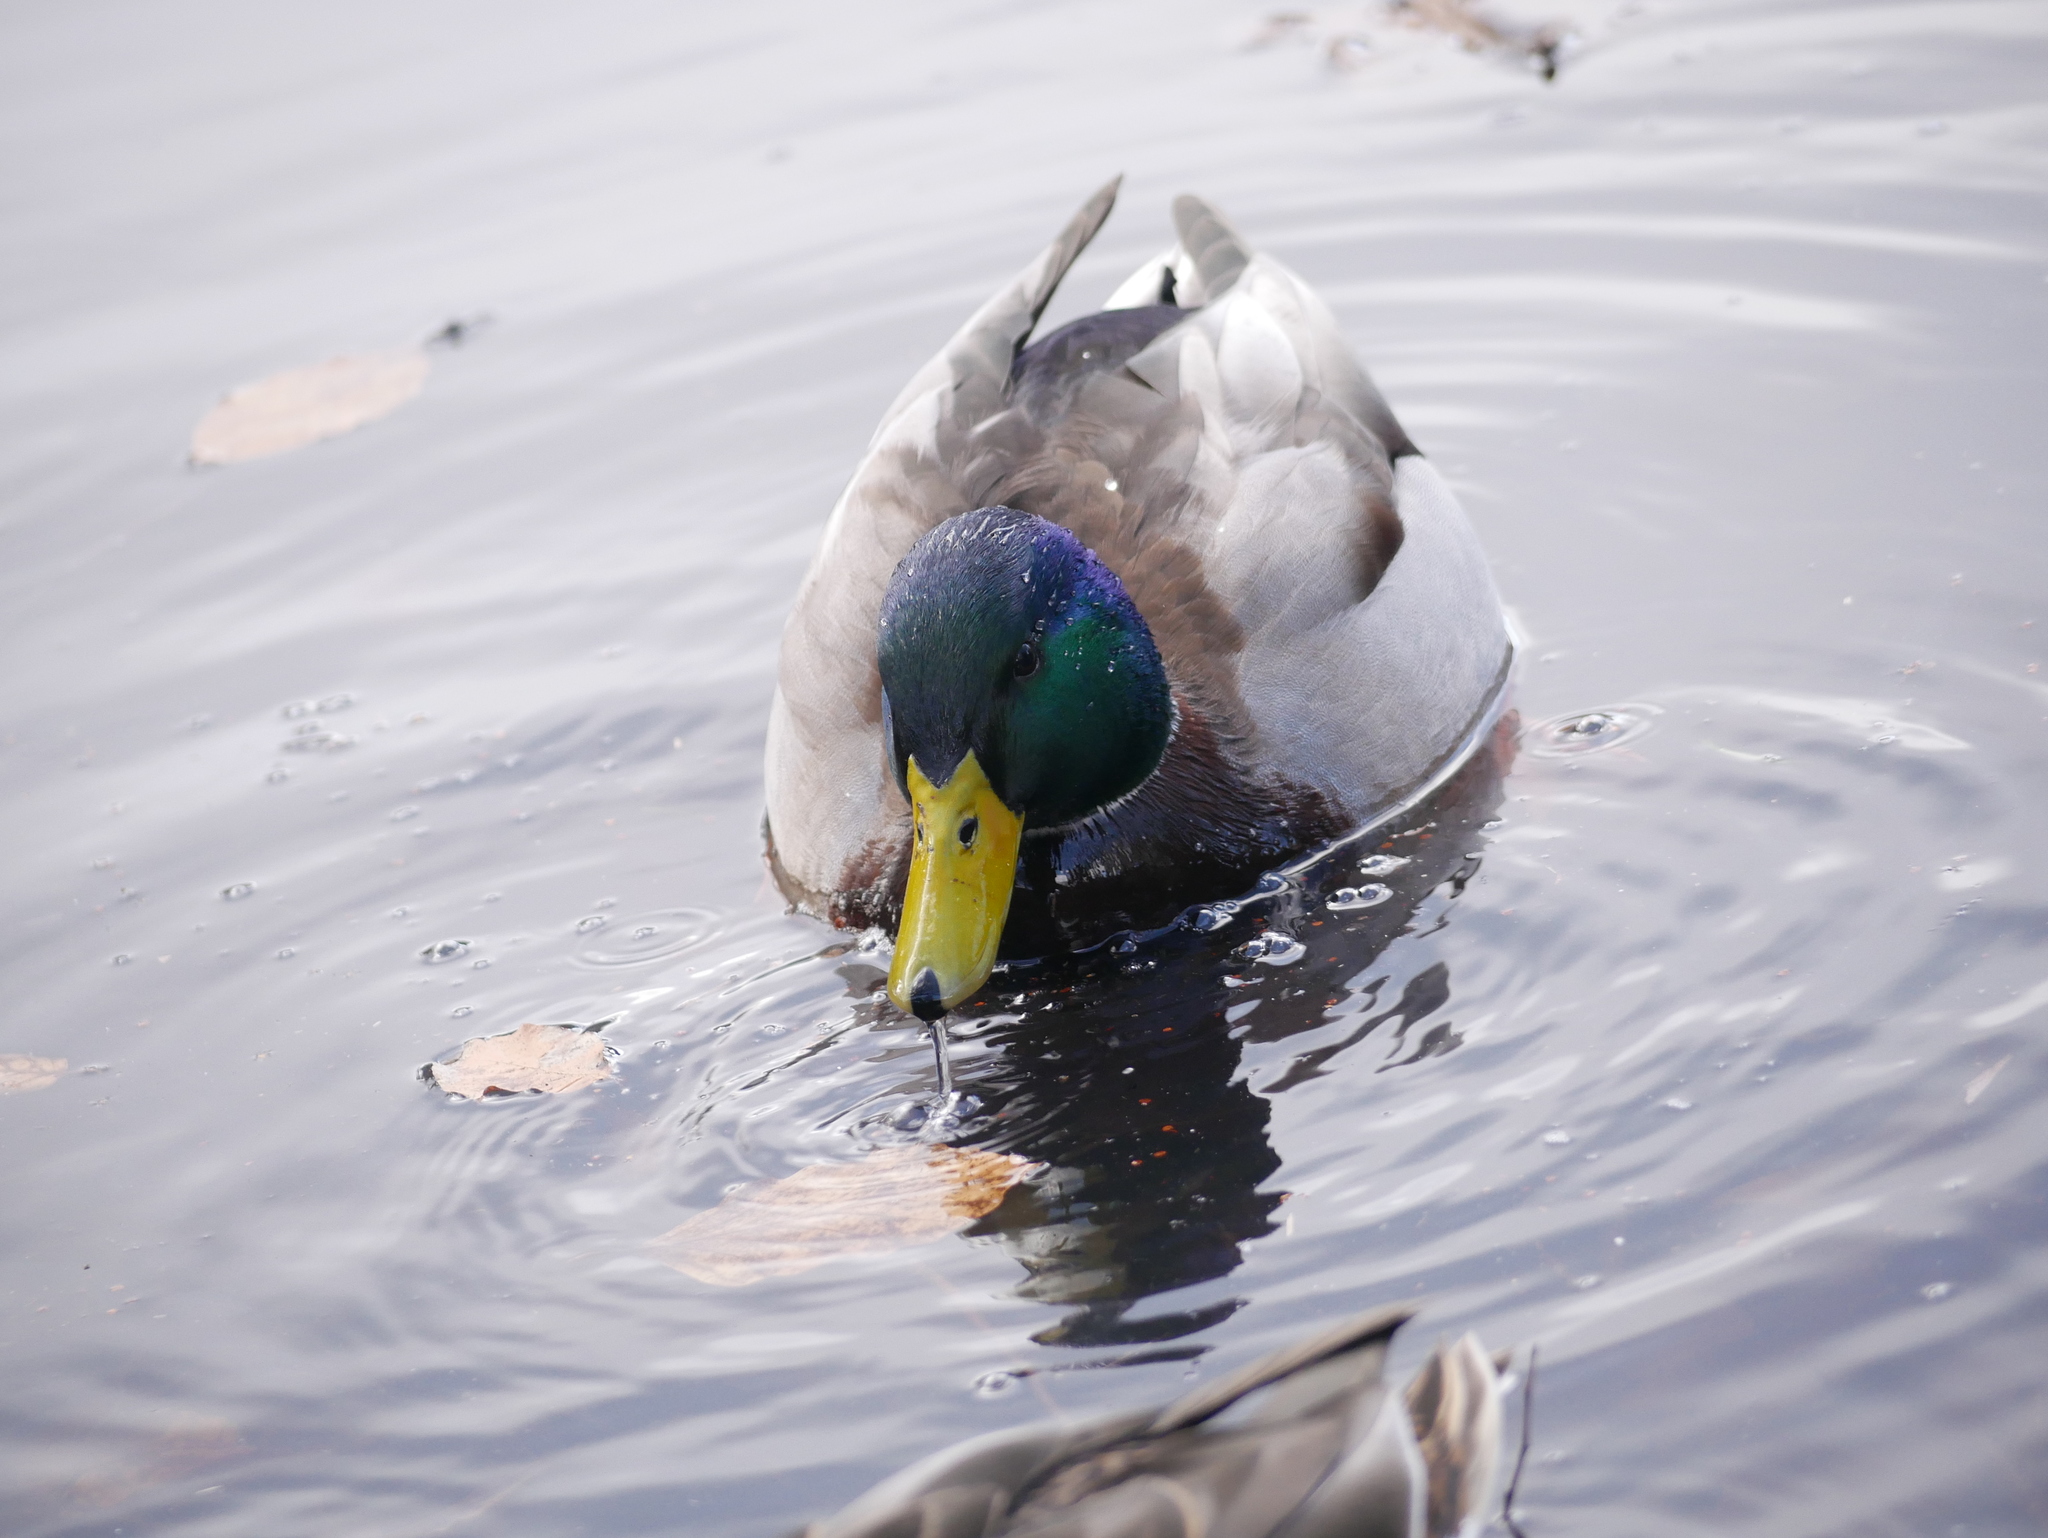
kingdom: Animalia
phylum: Chordata
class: Aves
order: Anseriformes
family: Anatidae
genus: Anas
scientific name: Anas platyrhynchos
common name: Mallard
